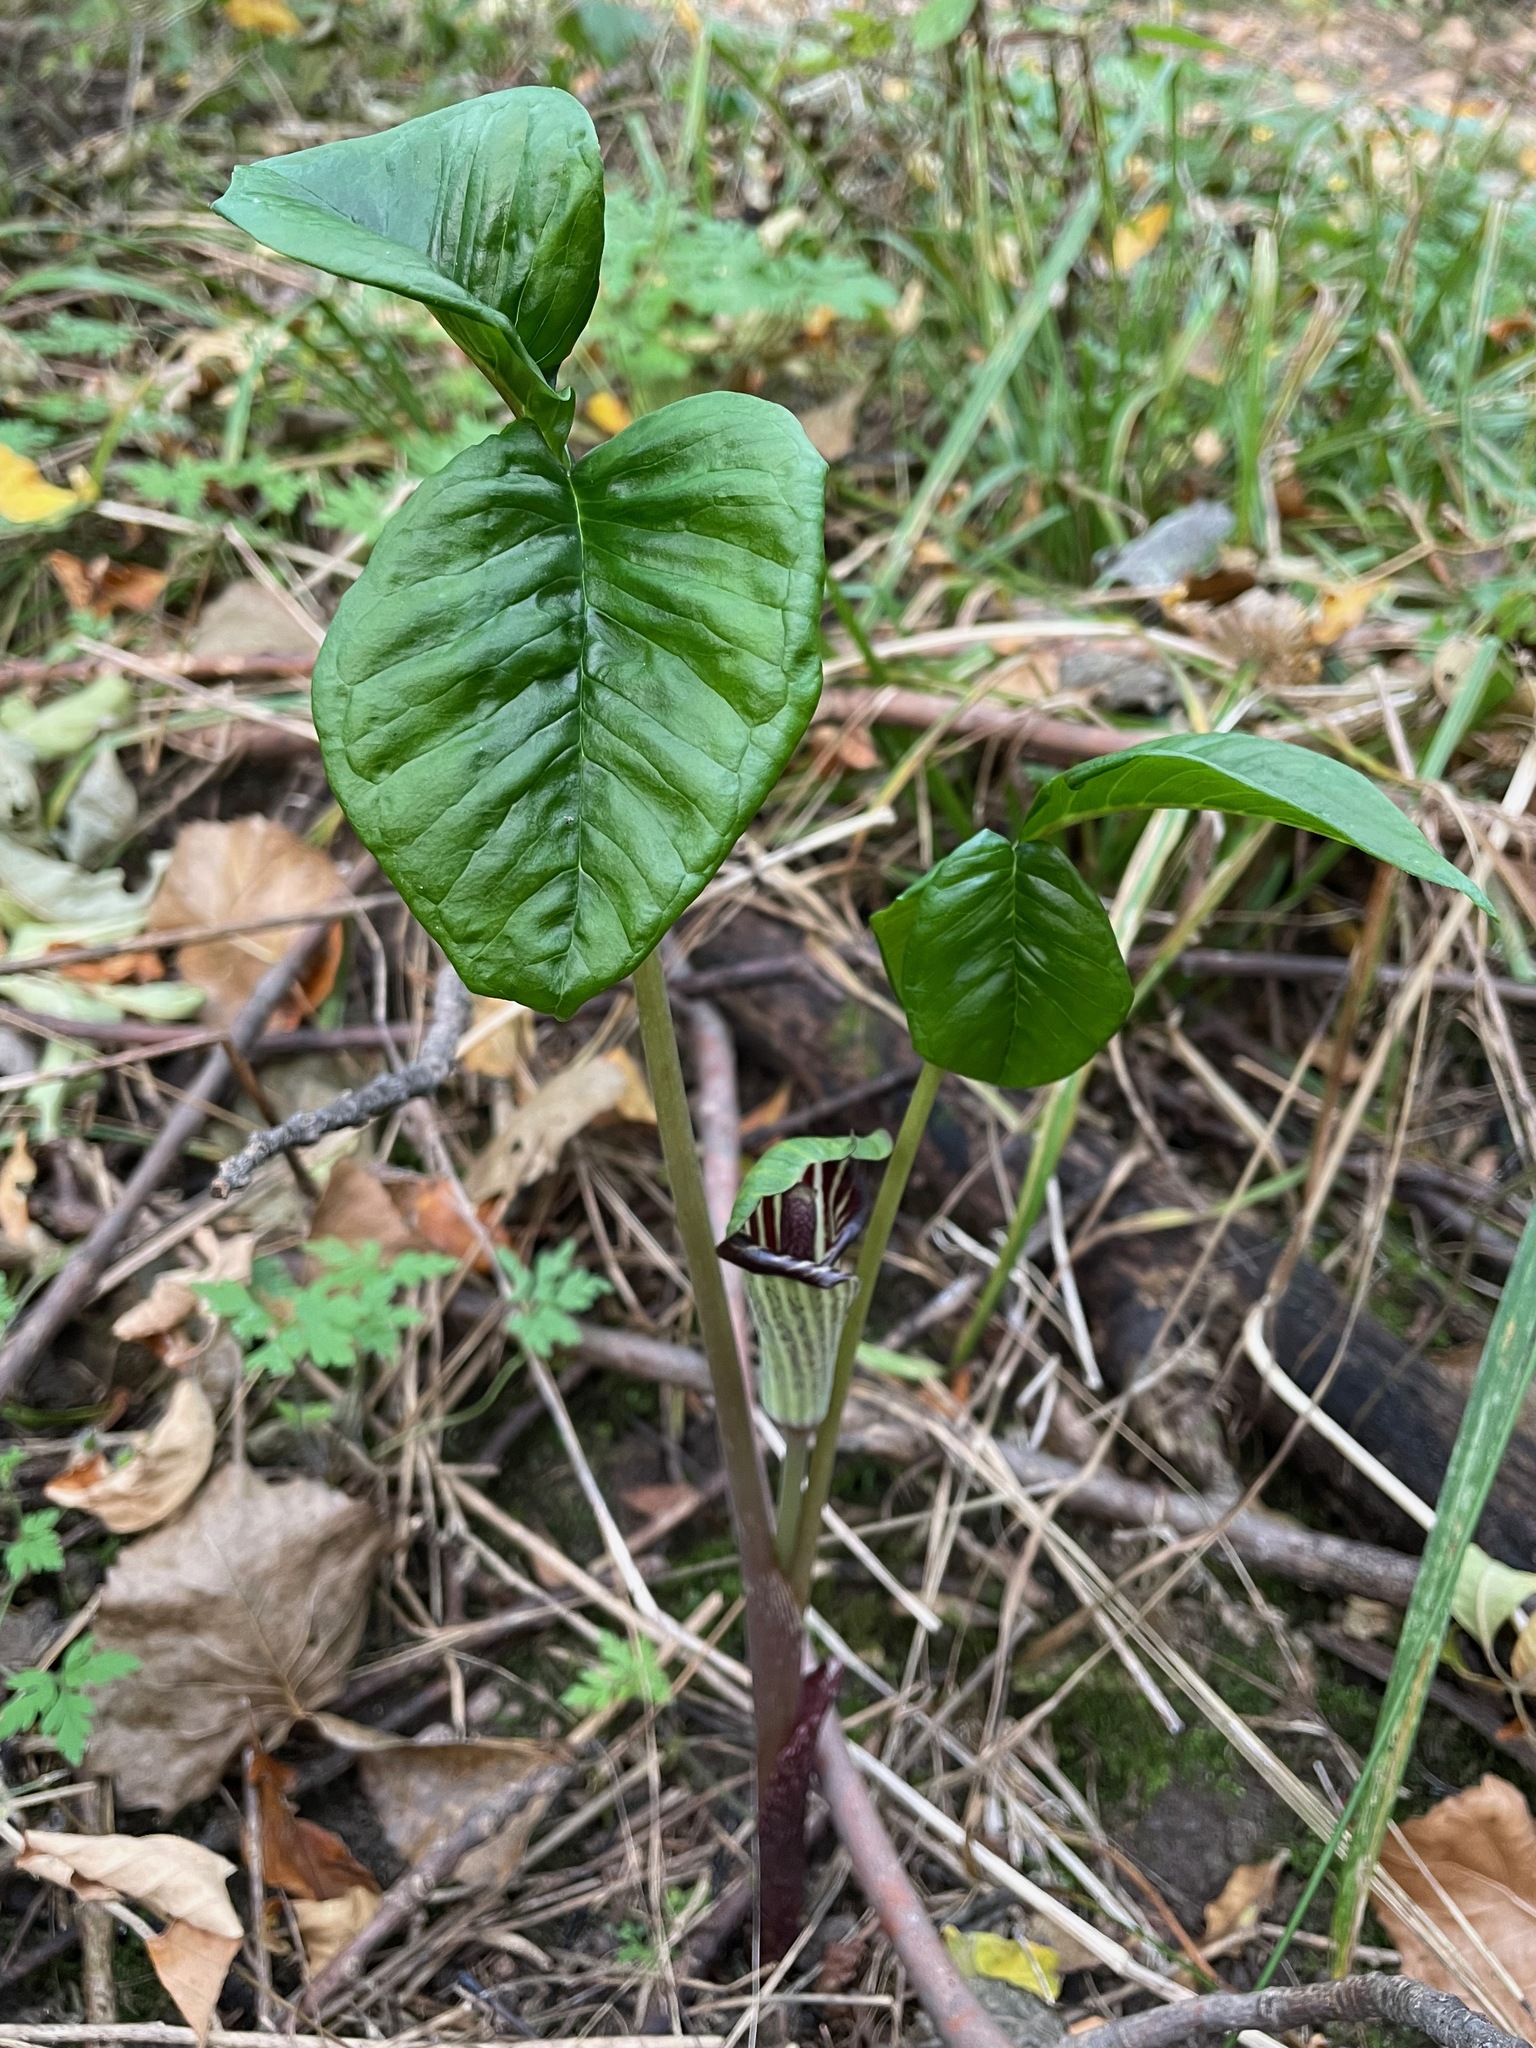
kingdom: Plantae
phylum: Tracheophyta
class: Liliopsida
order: Alismatales
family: Araceae
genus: Arisaema
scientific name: Arisaema triphyllum
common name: Jack-in-the-pulpit
